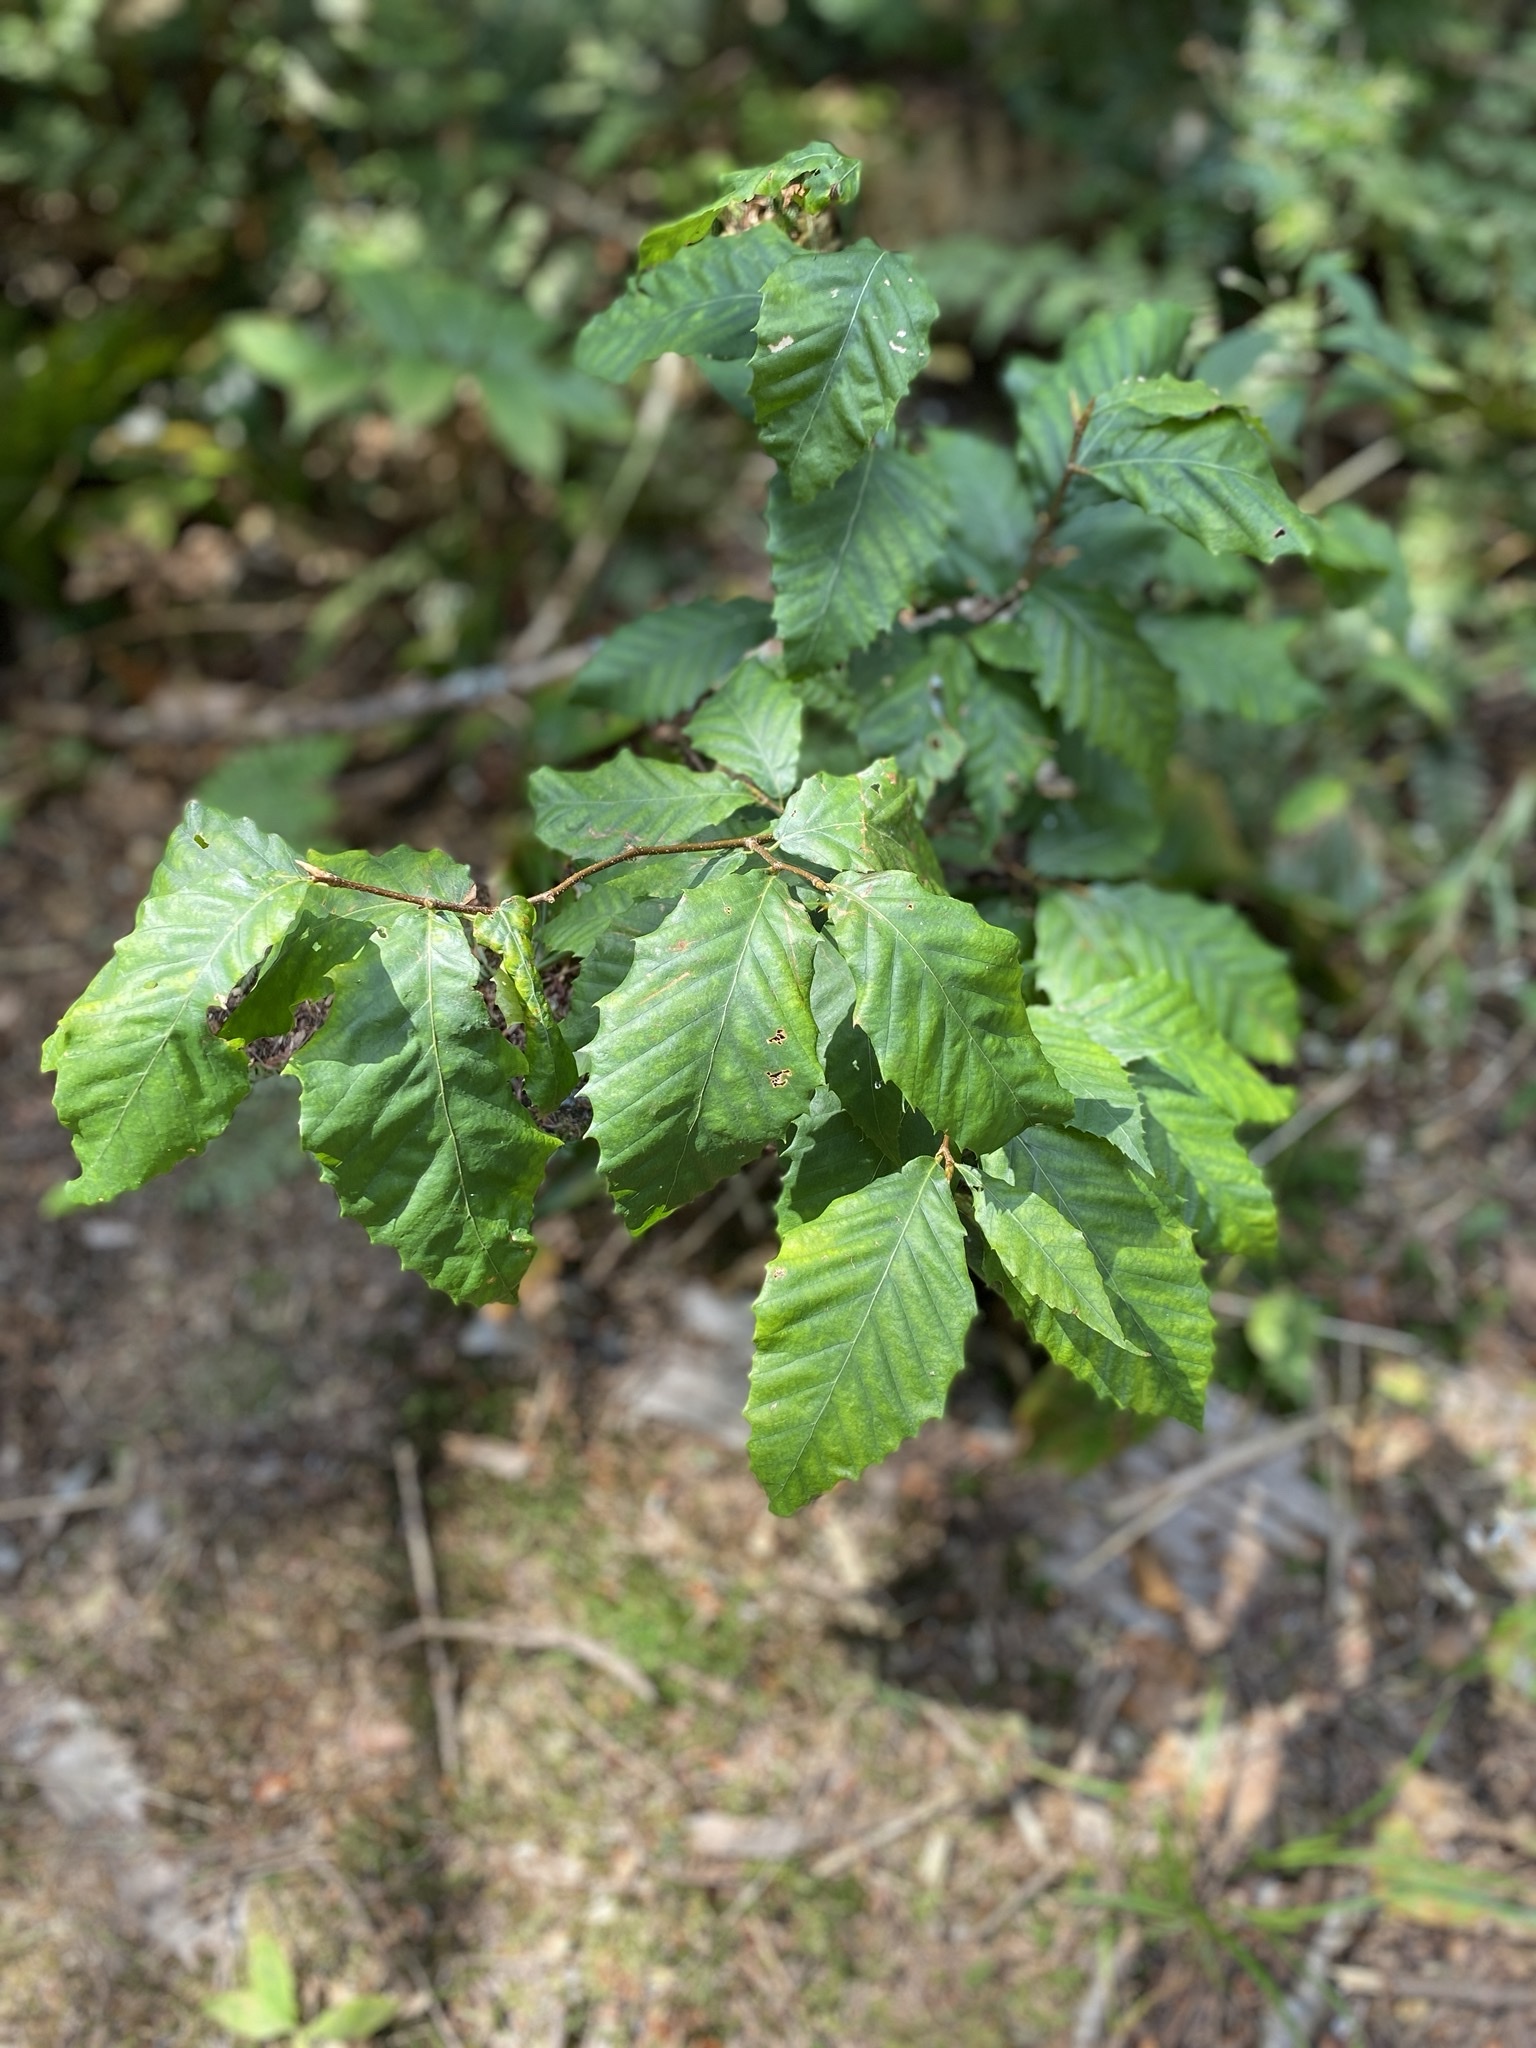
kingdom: Plantae
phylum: Tracheophyta
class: Magnoliopsida
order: Fagales
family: Fagaceae
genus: Fagus
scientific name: Fagus grandifolia
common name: American beech
